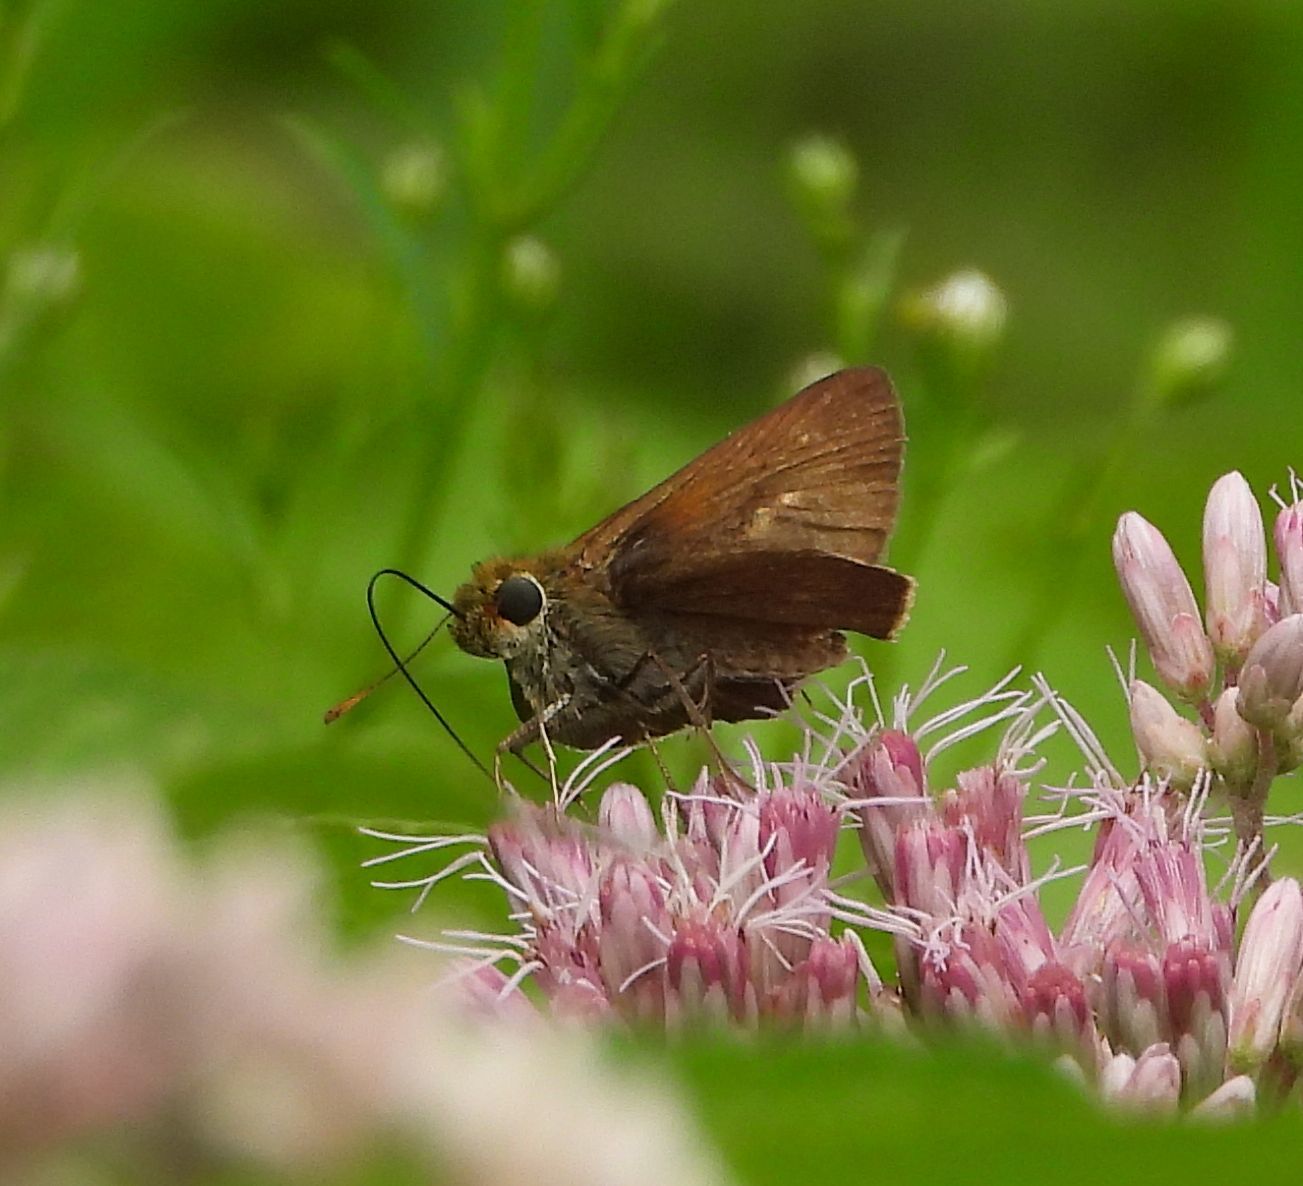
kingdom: Animalia
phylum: Arthropoda
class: Insecta
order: Lepidoptera
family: Hesperiidae
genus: Euphyes
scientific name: Euphyes vestris
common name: Dun skipper
